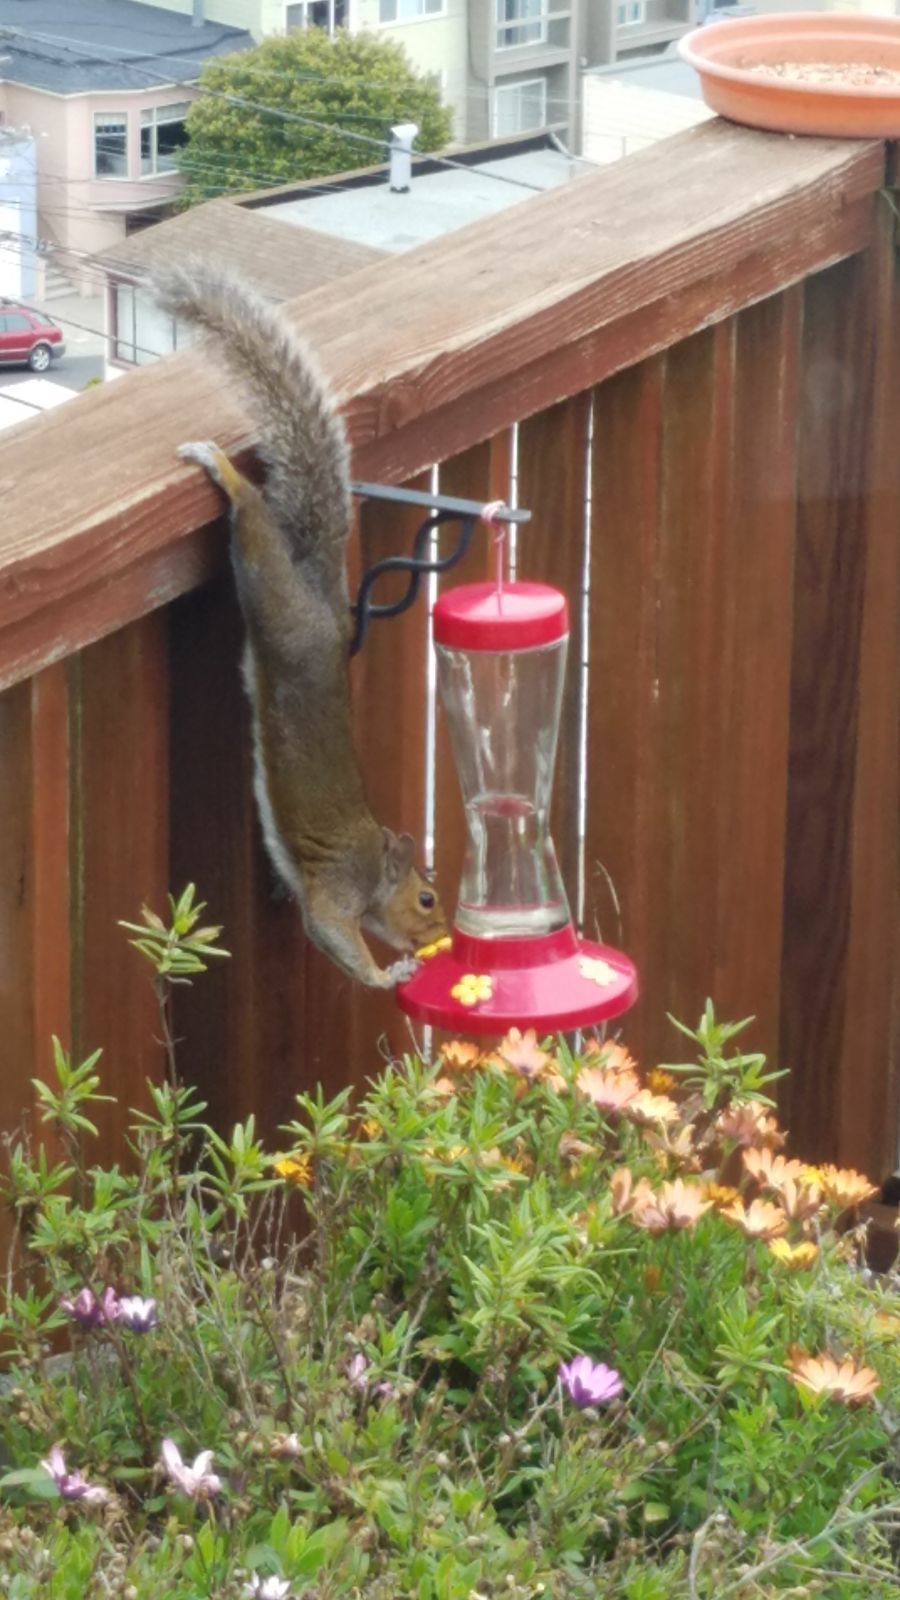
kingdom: Animalia
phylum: Chordata
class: Mammalia
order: Rodentia
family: Sciuridae
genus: Sciurus
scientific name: Sciurus carolinensis
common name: Eastern gray squirrel
